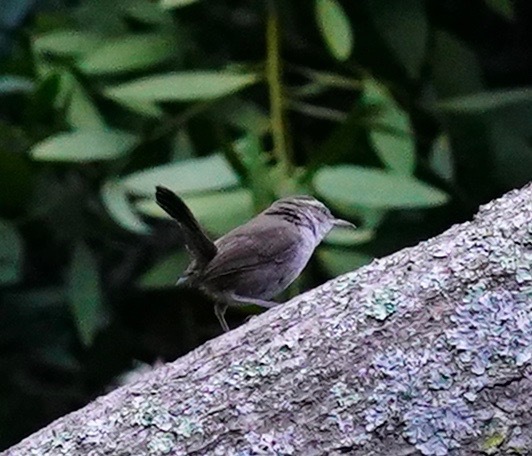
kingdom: Animalia
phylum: Chordata
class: Aves
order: Passeriformes
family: Troglodytidae
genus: Thryomanes
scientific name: Thryomanes bewickii
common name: Bewick's wren
